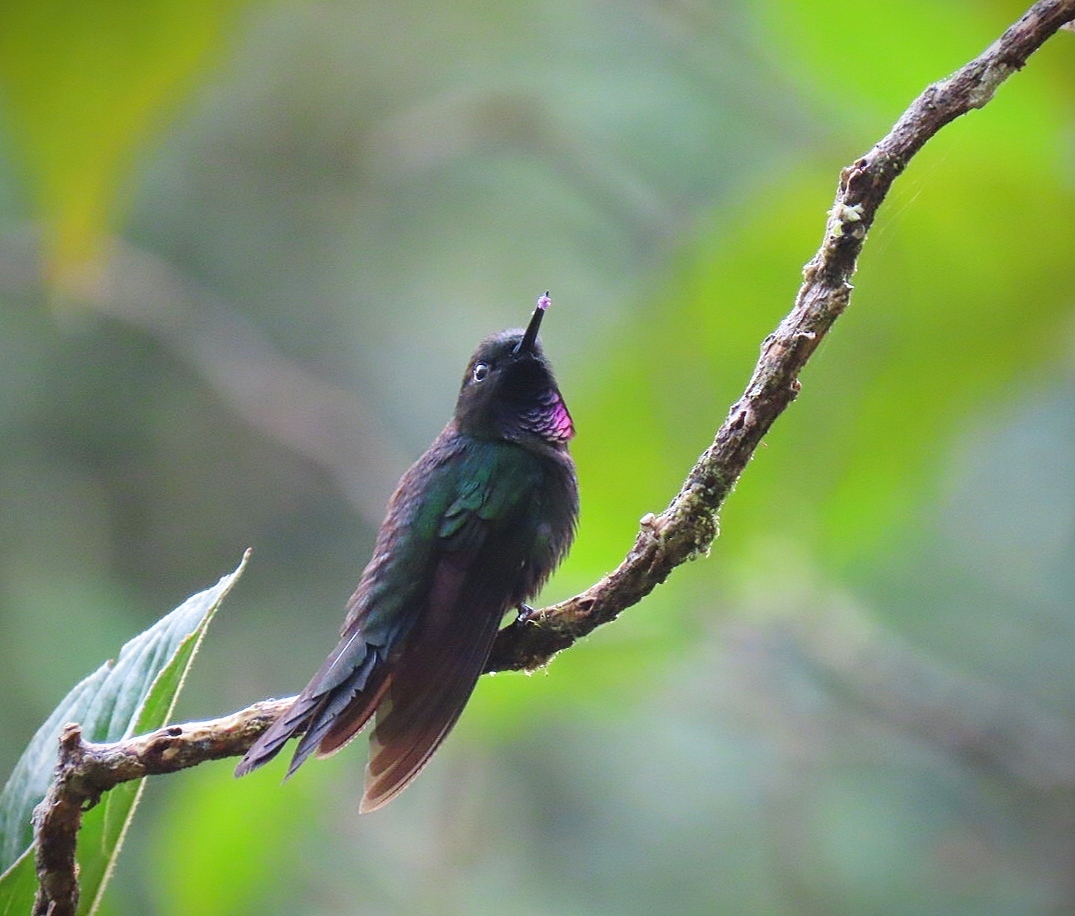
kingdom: Animalia
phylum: Chordata
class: Aves
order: Apodiformes
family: Trochilidae
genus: Heliangelus
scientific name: Heliangelus exortis
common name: Tourmaline sunangel
